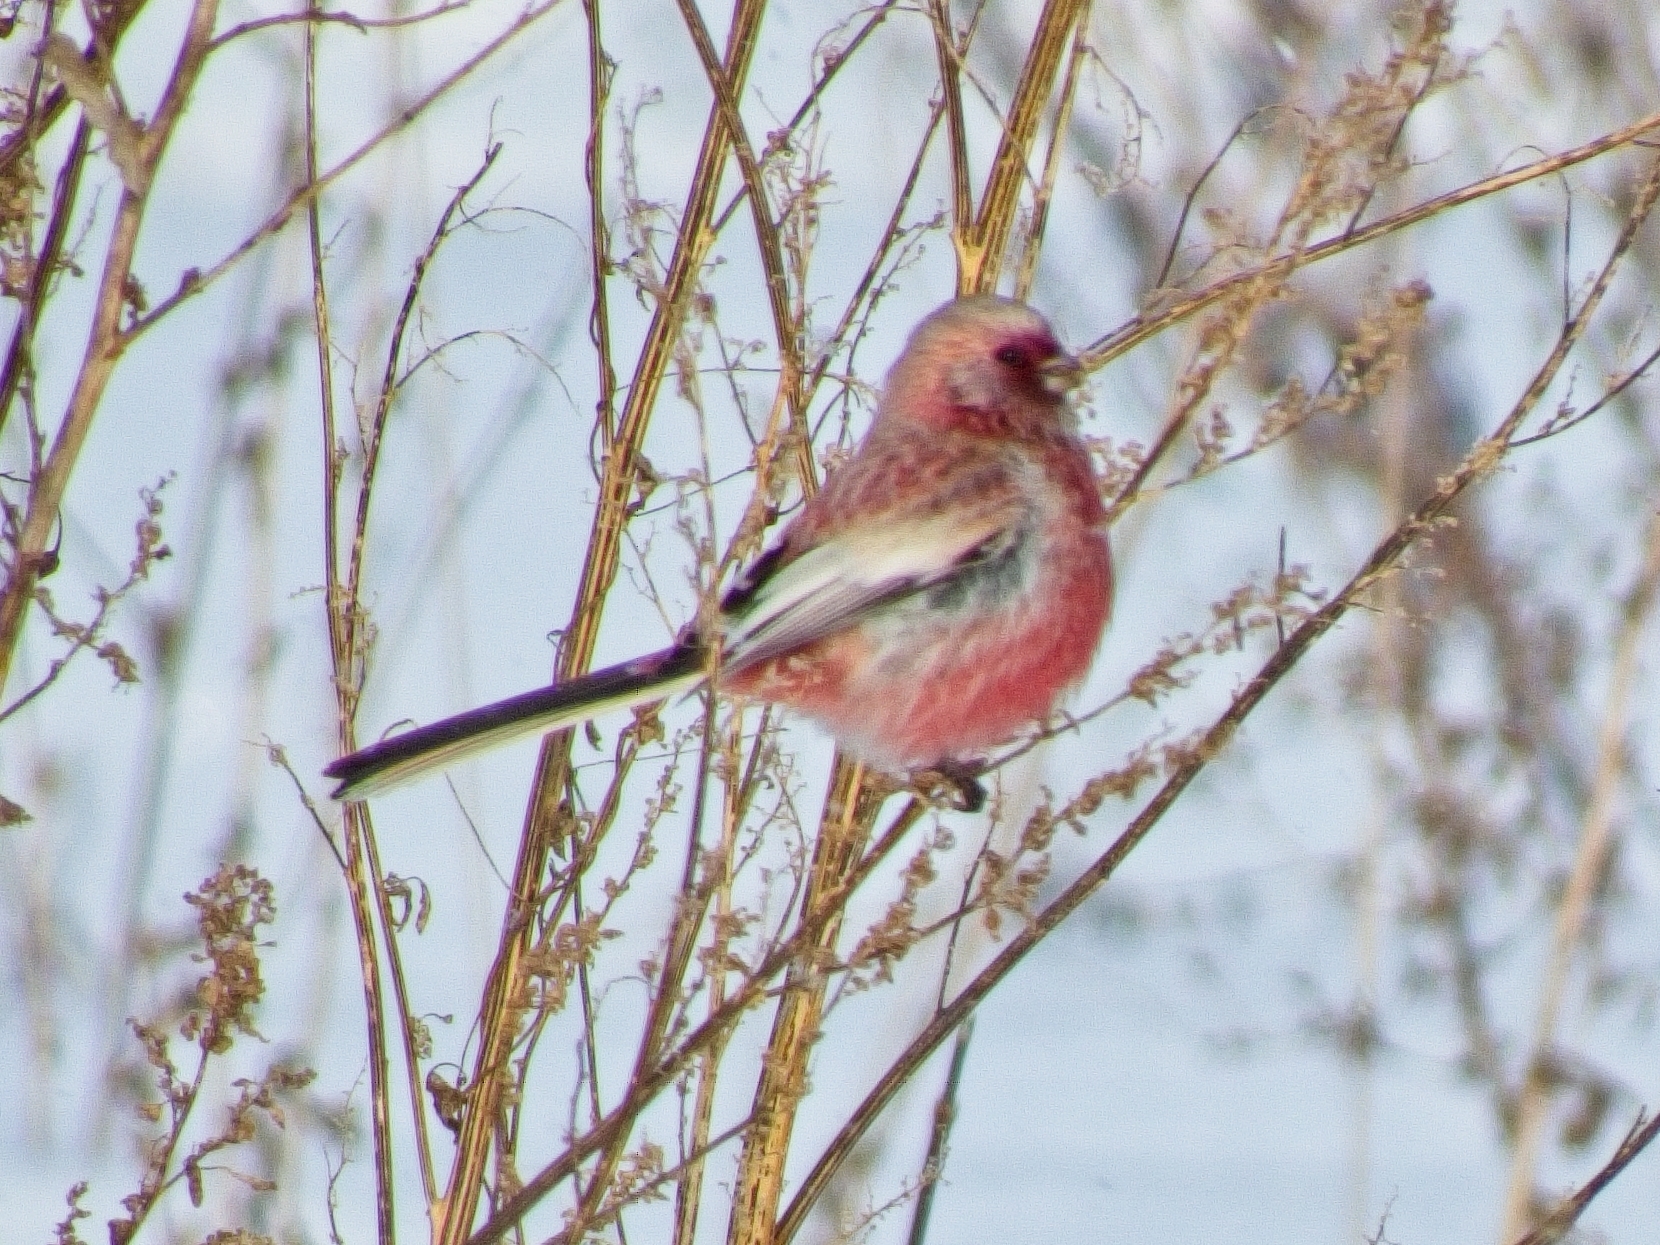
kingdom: Animalia
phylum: Chordata
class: Aves
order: Passeriformes
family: Fringillidae
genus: Carpodacus
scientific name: Carpodacus sibiricus
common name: Long-tailed rosefinch
